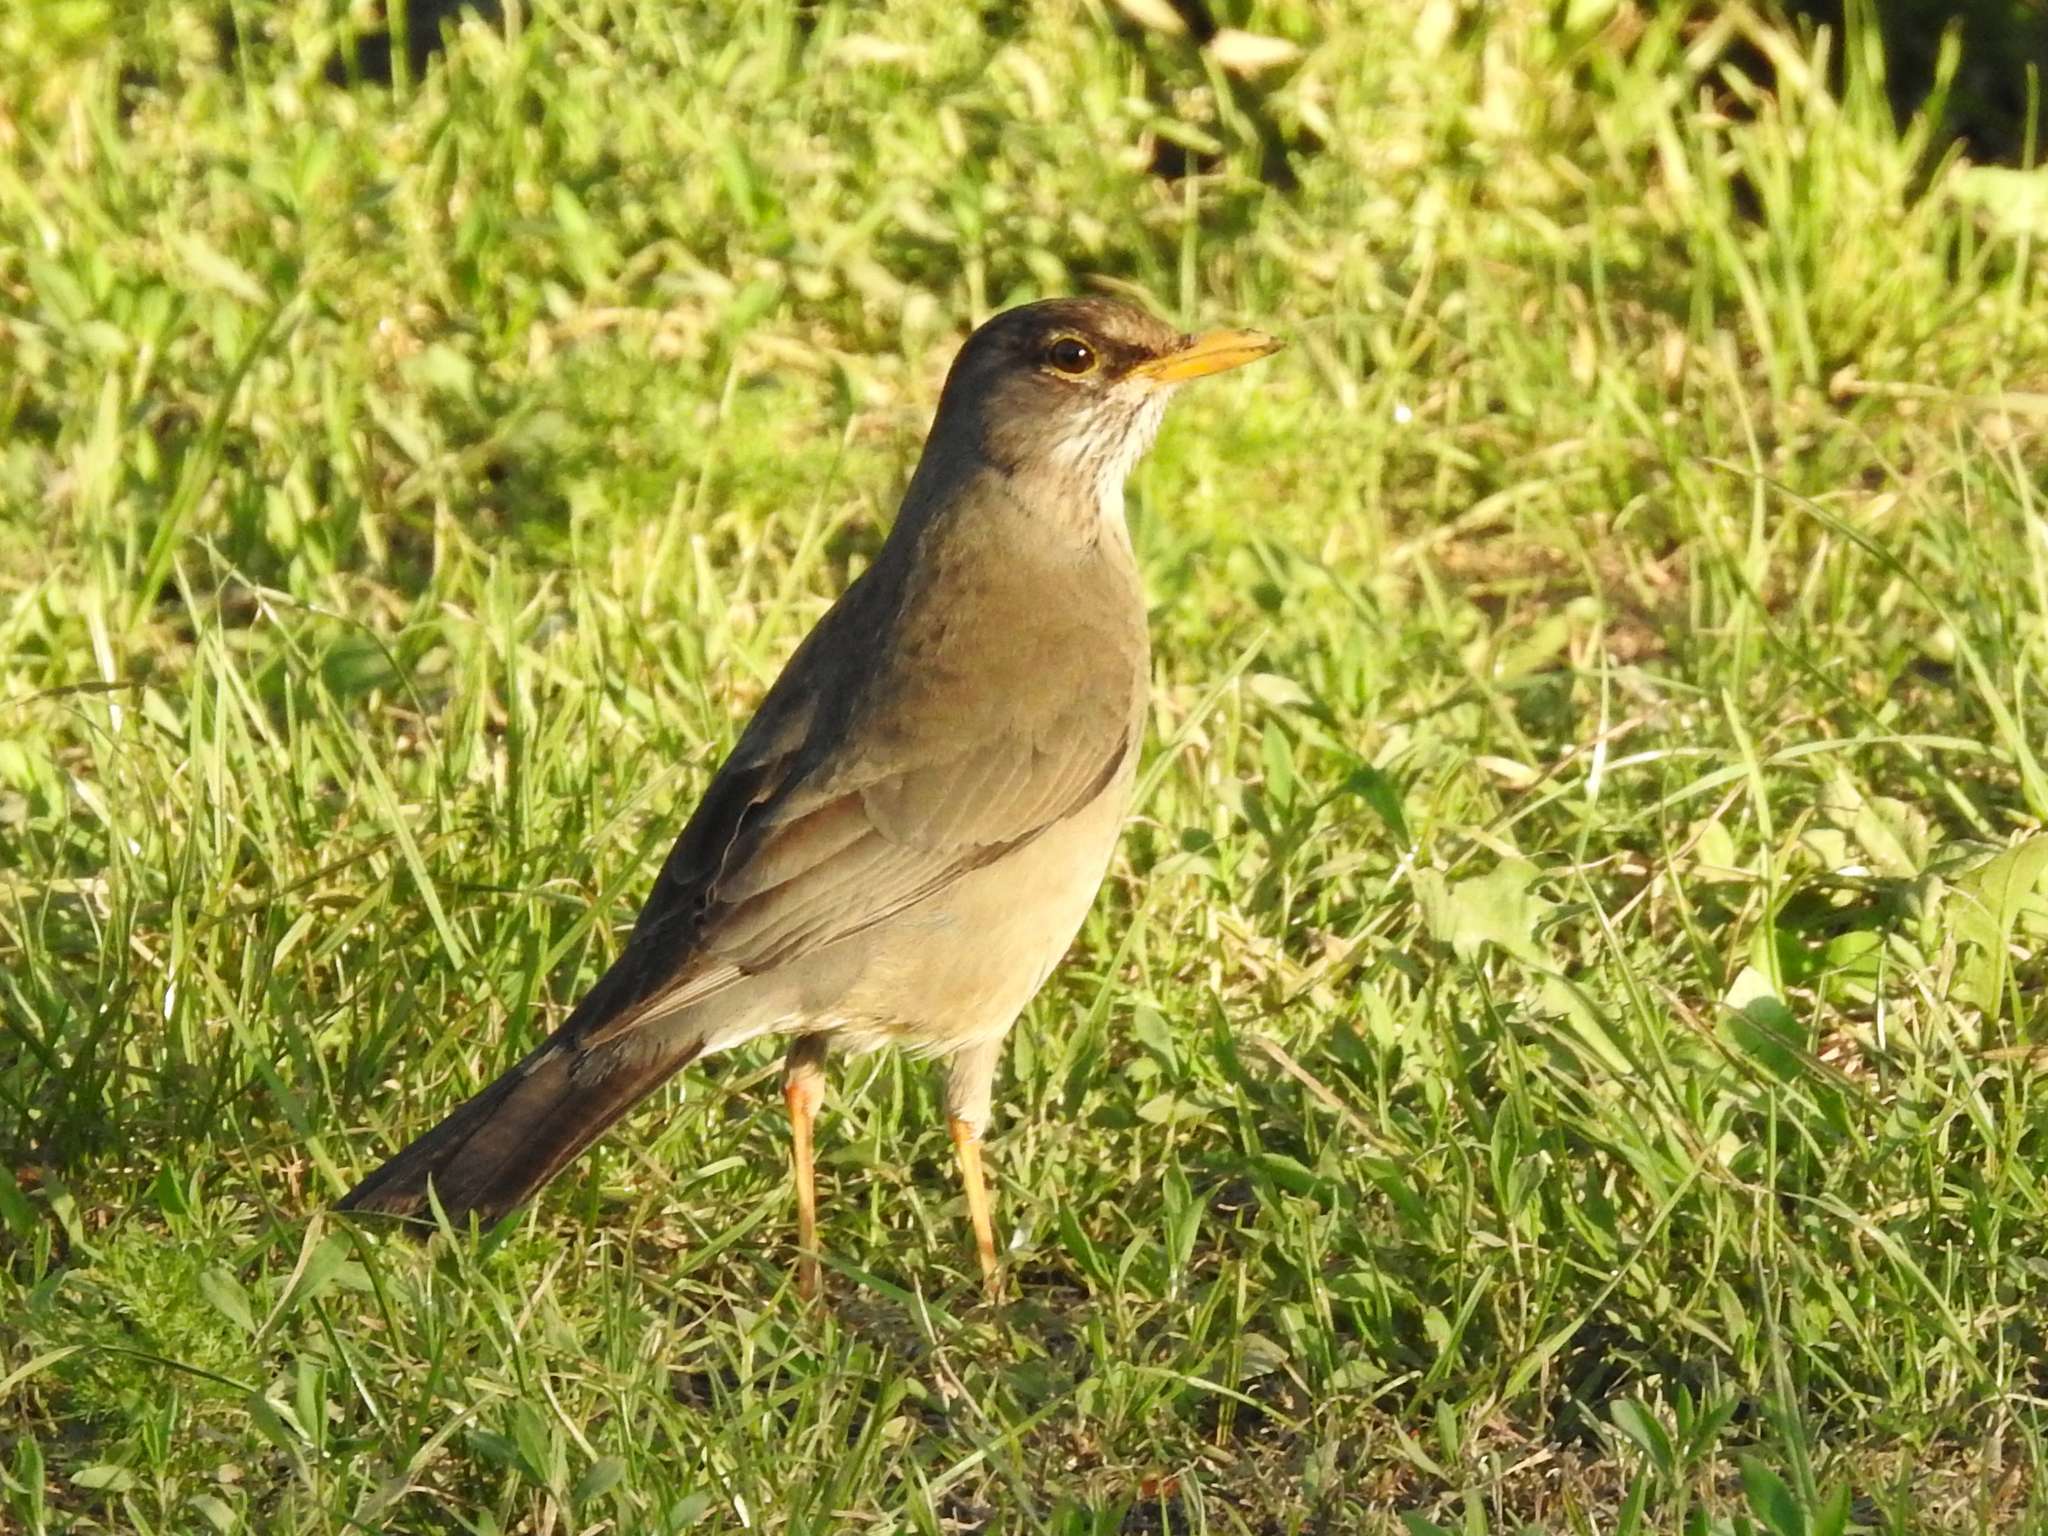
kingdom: Animalia
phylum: Chordata
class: Aves
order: Passeriformes
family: Turdidae
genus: Turdus
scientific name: Turdus falcklandii
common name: Austral thrush
